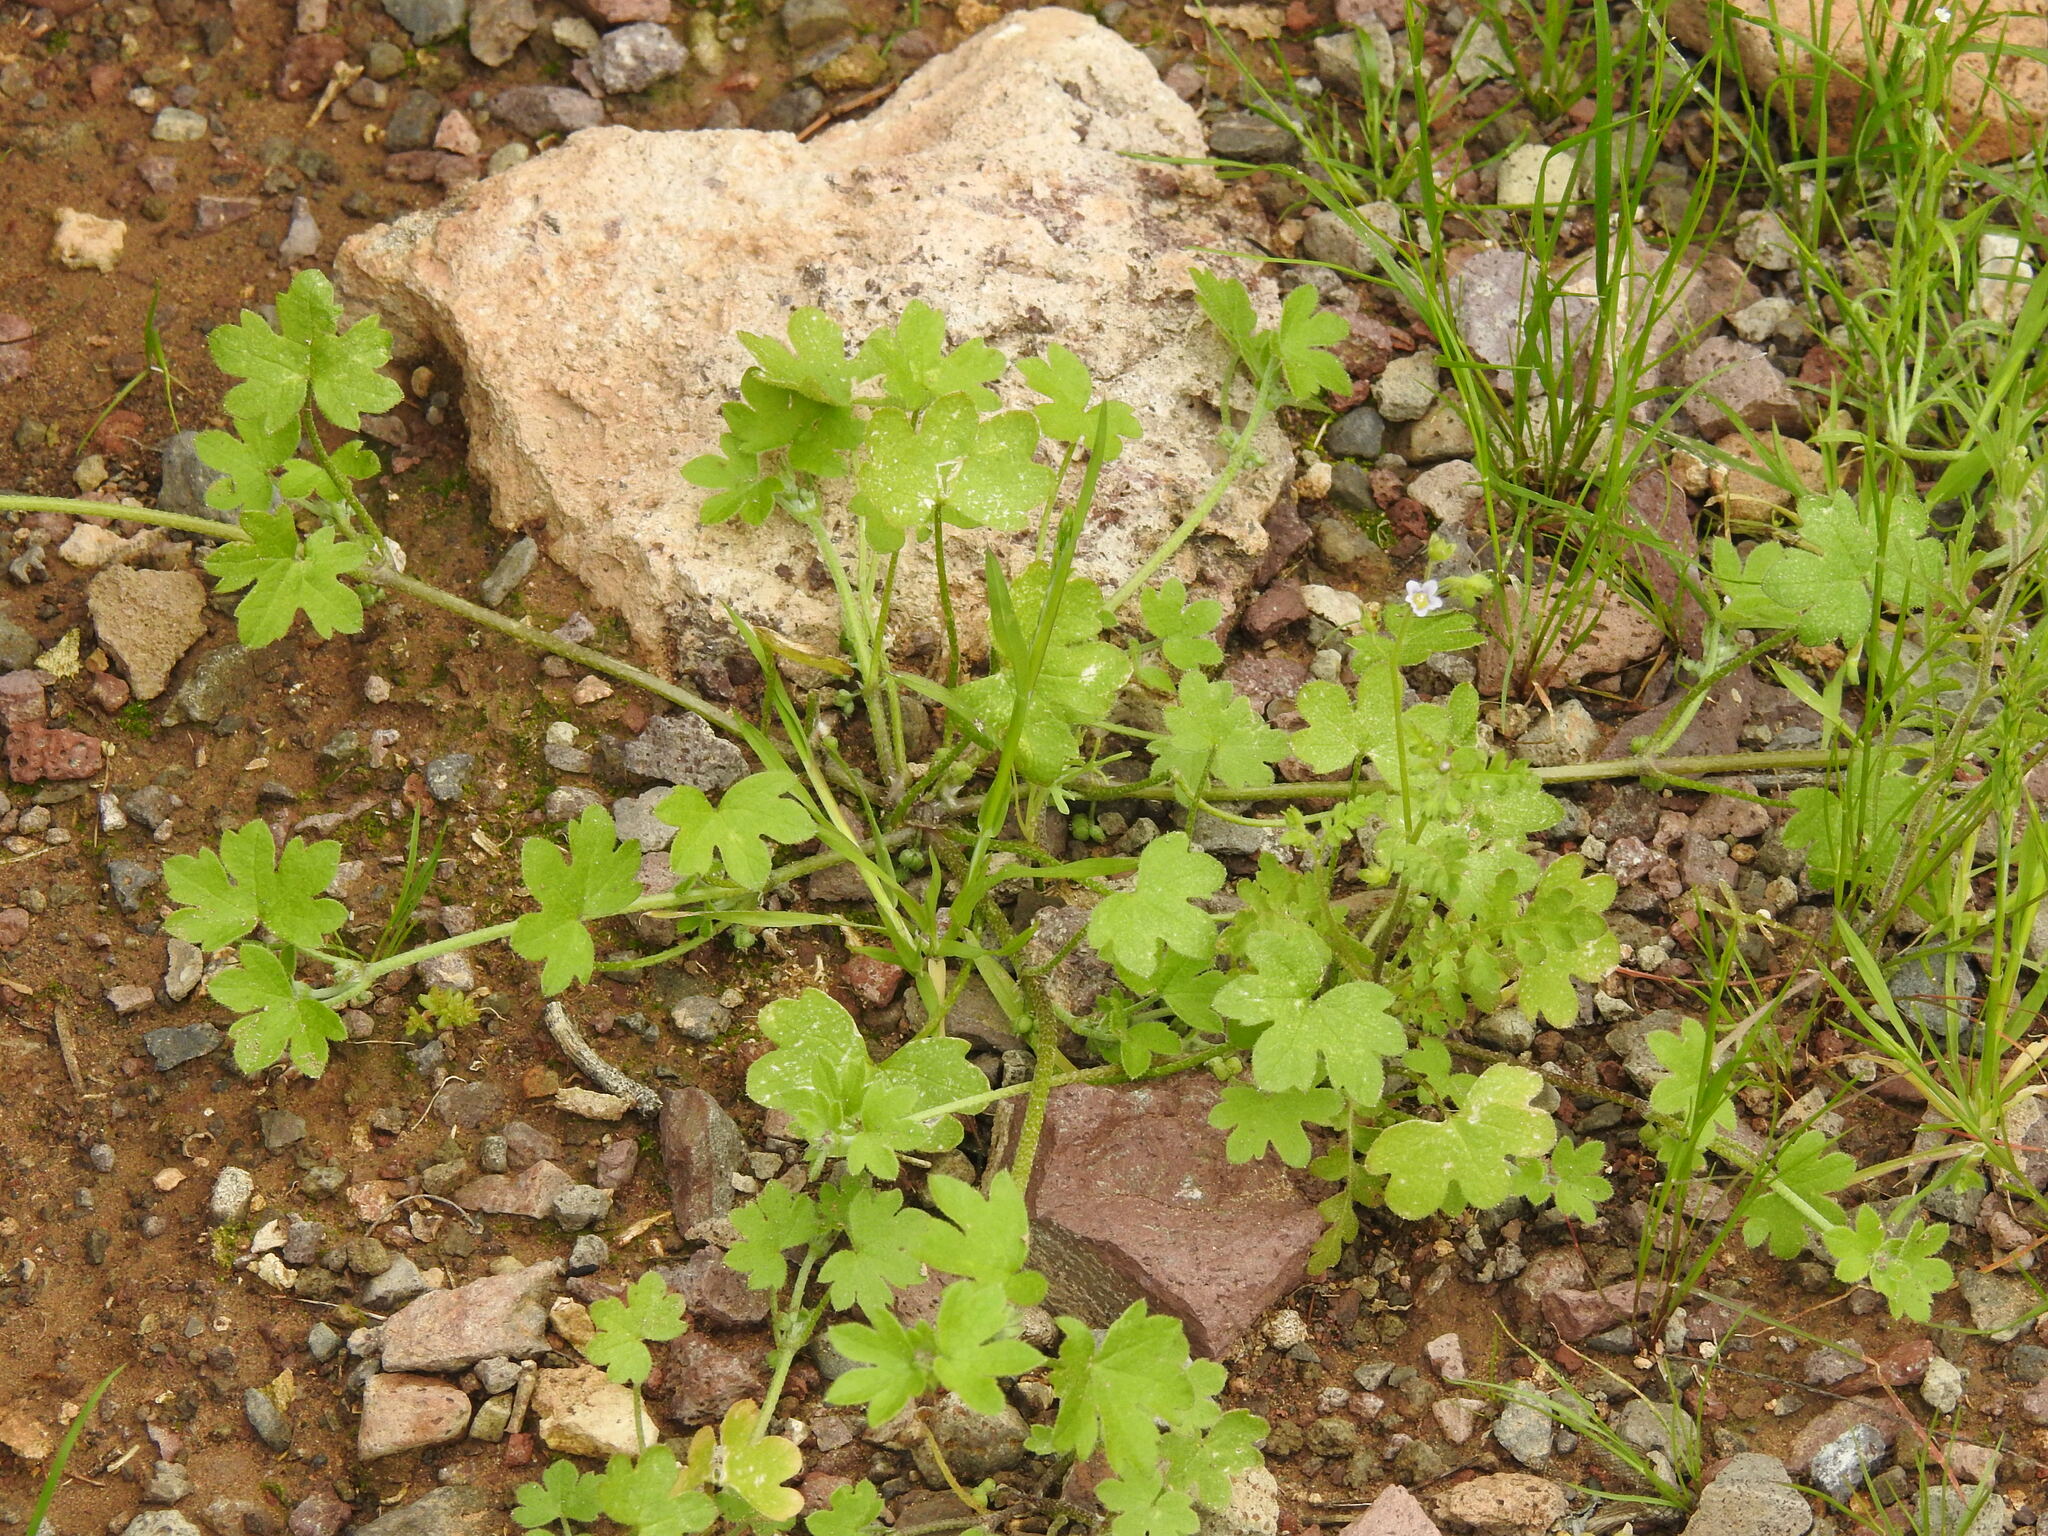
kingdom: Plantae
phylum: Tracheophyta
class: Magnoliopsida
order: Apiales
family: Apiaceae
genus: Bowlesia
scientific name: Bowlesia incana
